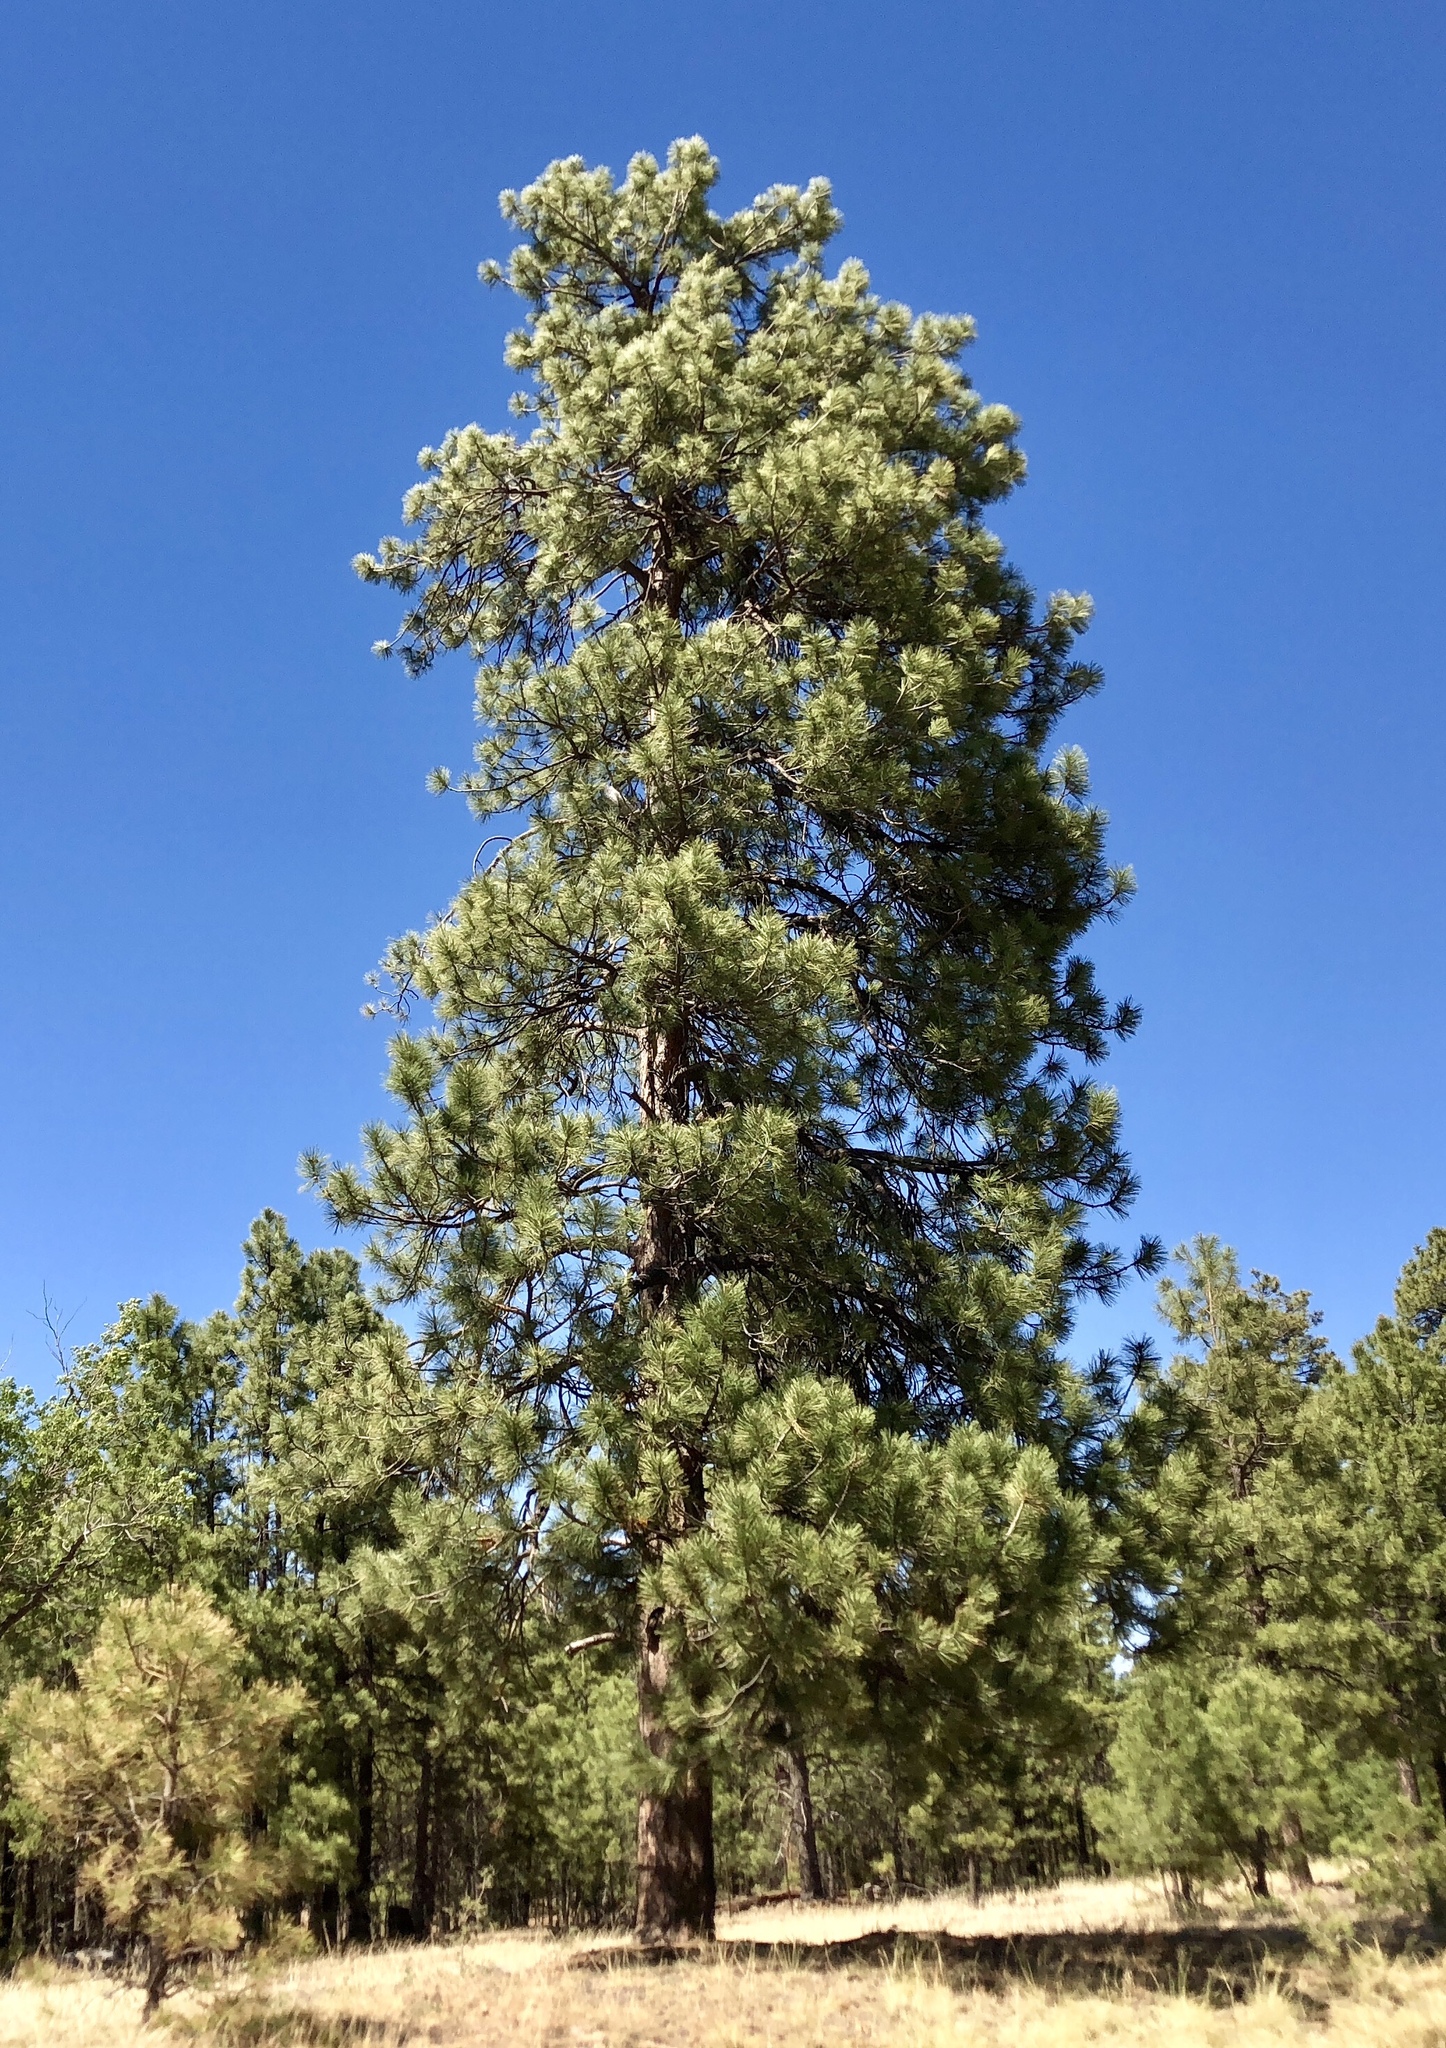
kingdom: Plantae
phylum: Tracheophyta
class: Pinopsida
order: Pinales
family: Pinaceae
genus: Pinus
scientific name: Pinus ponderosa
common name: Western yellow-pine
